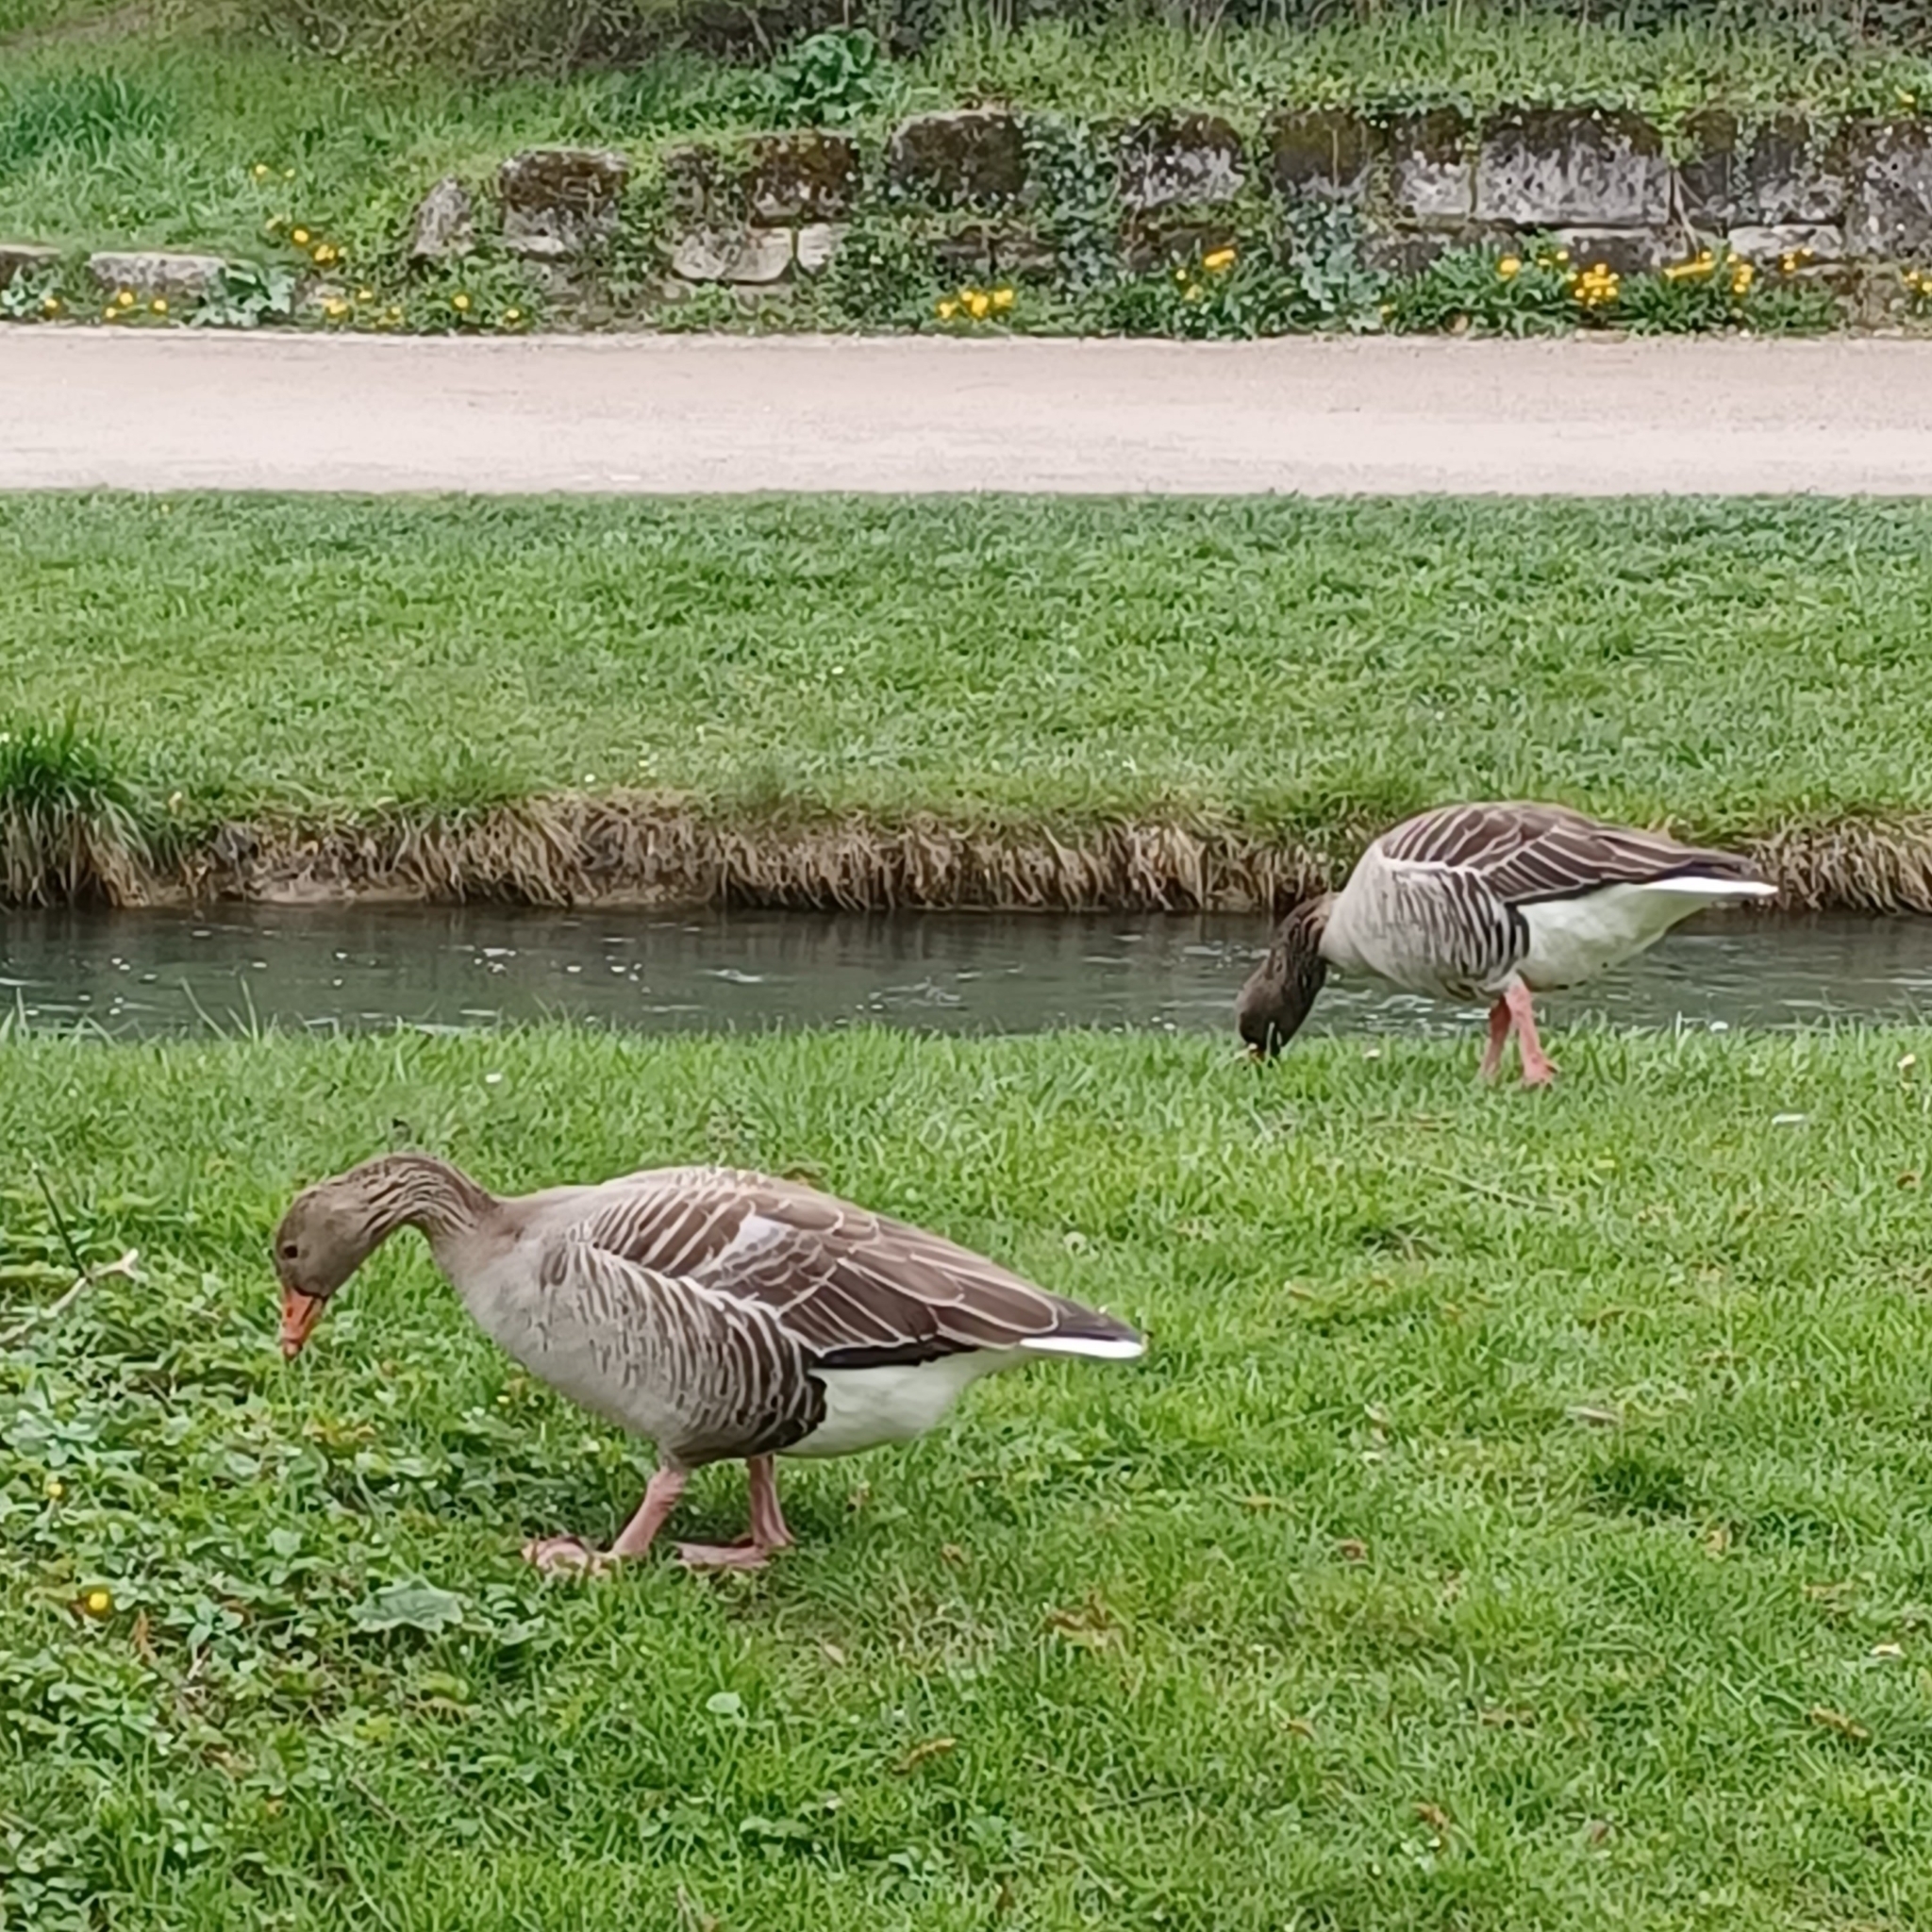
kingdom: Animalia
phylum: Chordata
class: Aves
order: Anseriformes
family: Anatidae
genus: Anser
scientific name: Anser anser
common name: Greylag goose
